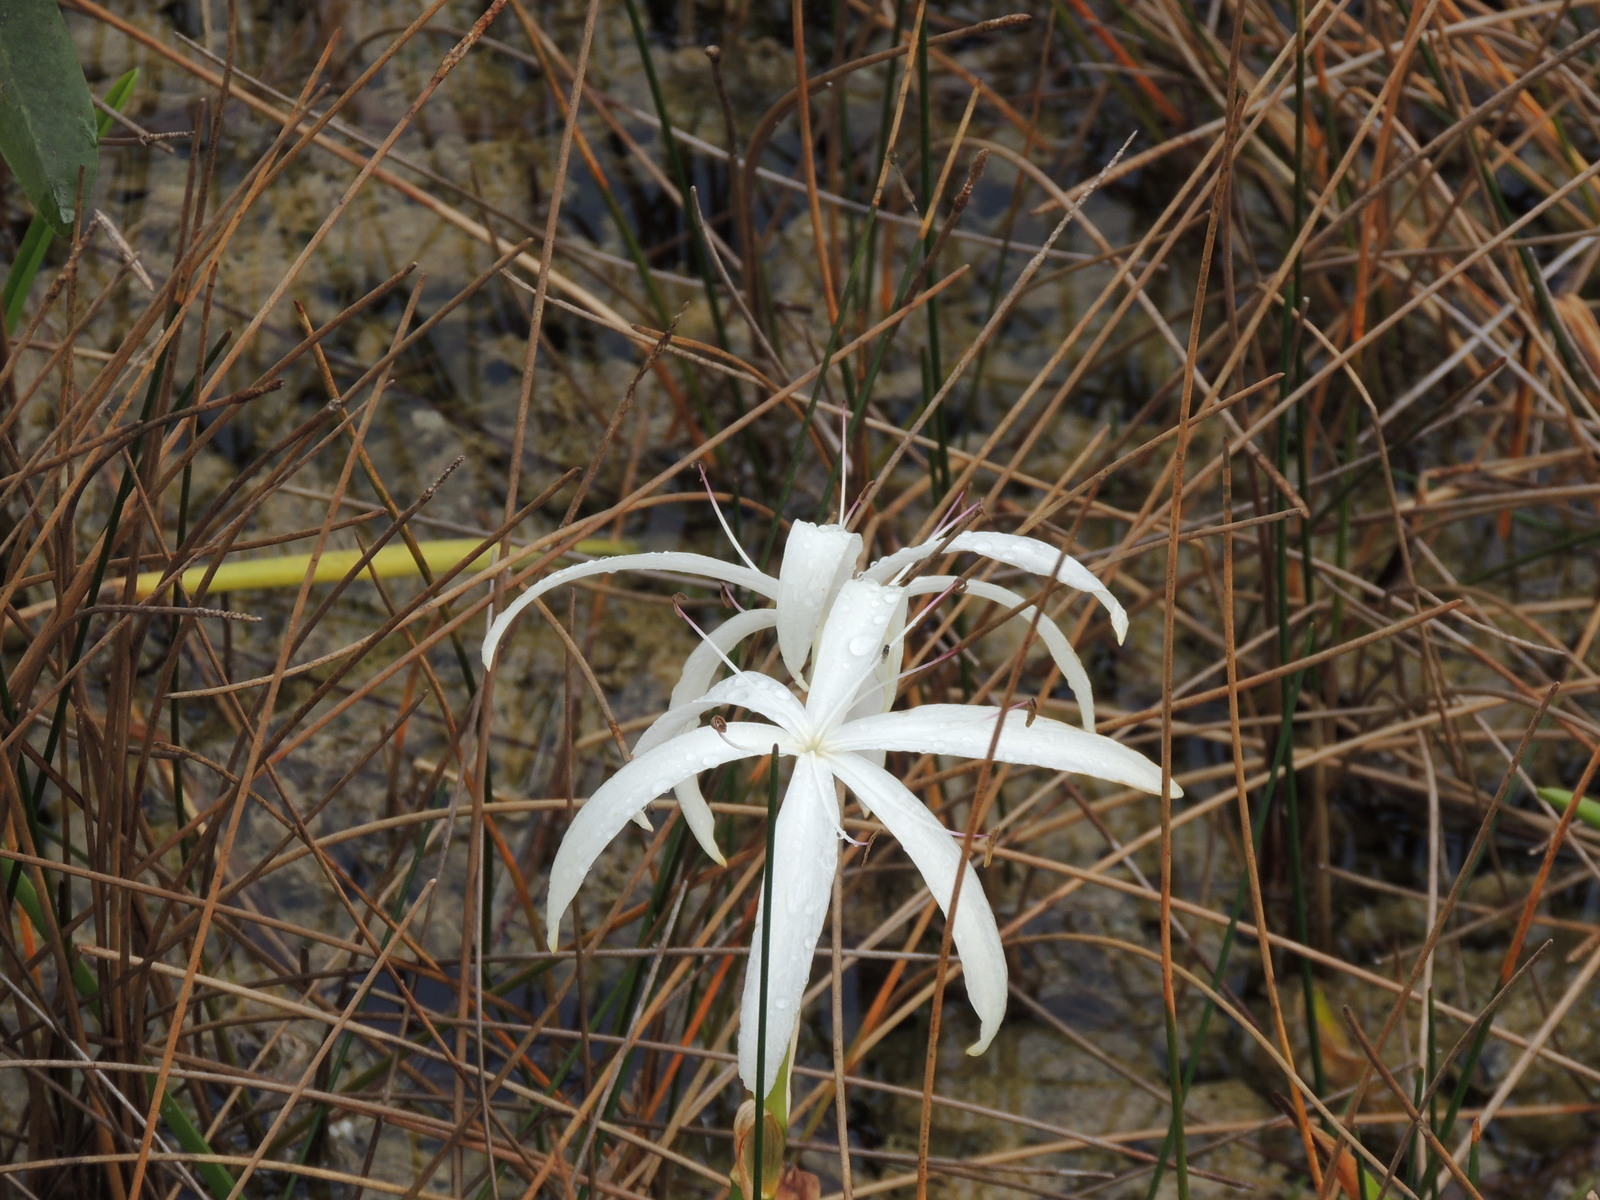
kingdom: Plantae
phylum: Tracheophyta
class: Liliopsida
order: Asparagales
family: Amaryllidaceae
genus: Crinum
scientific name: Crinum americanum
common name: Florida swamp-lily
